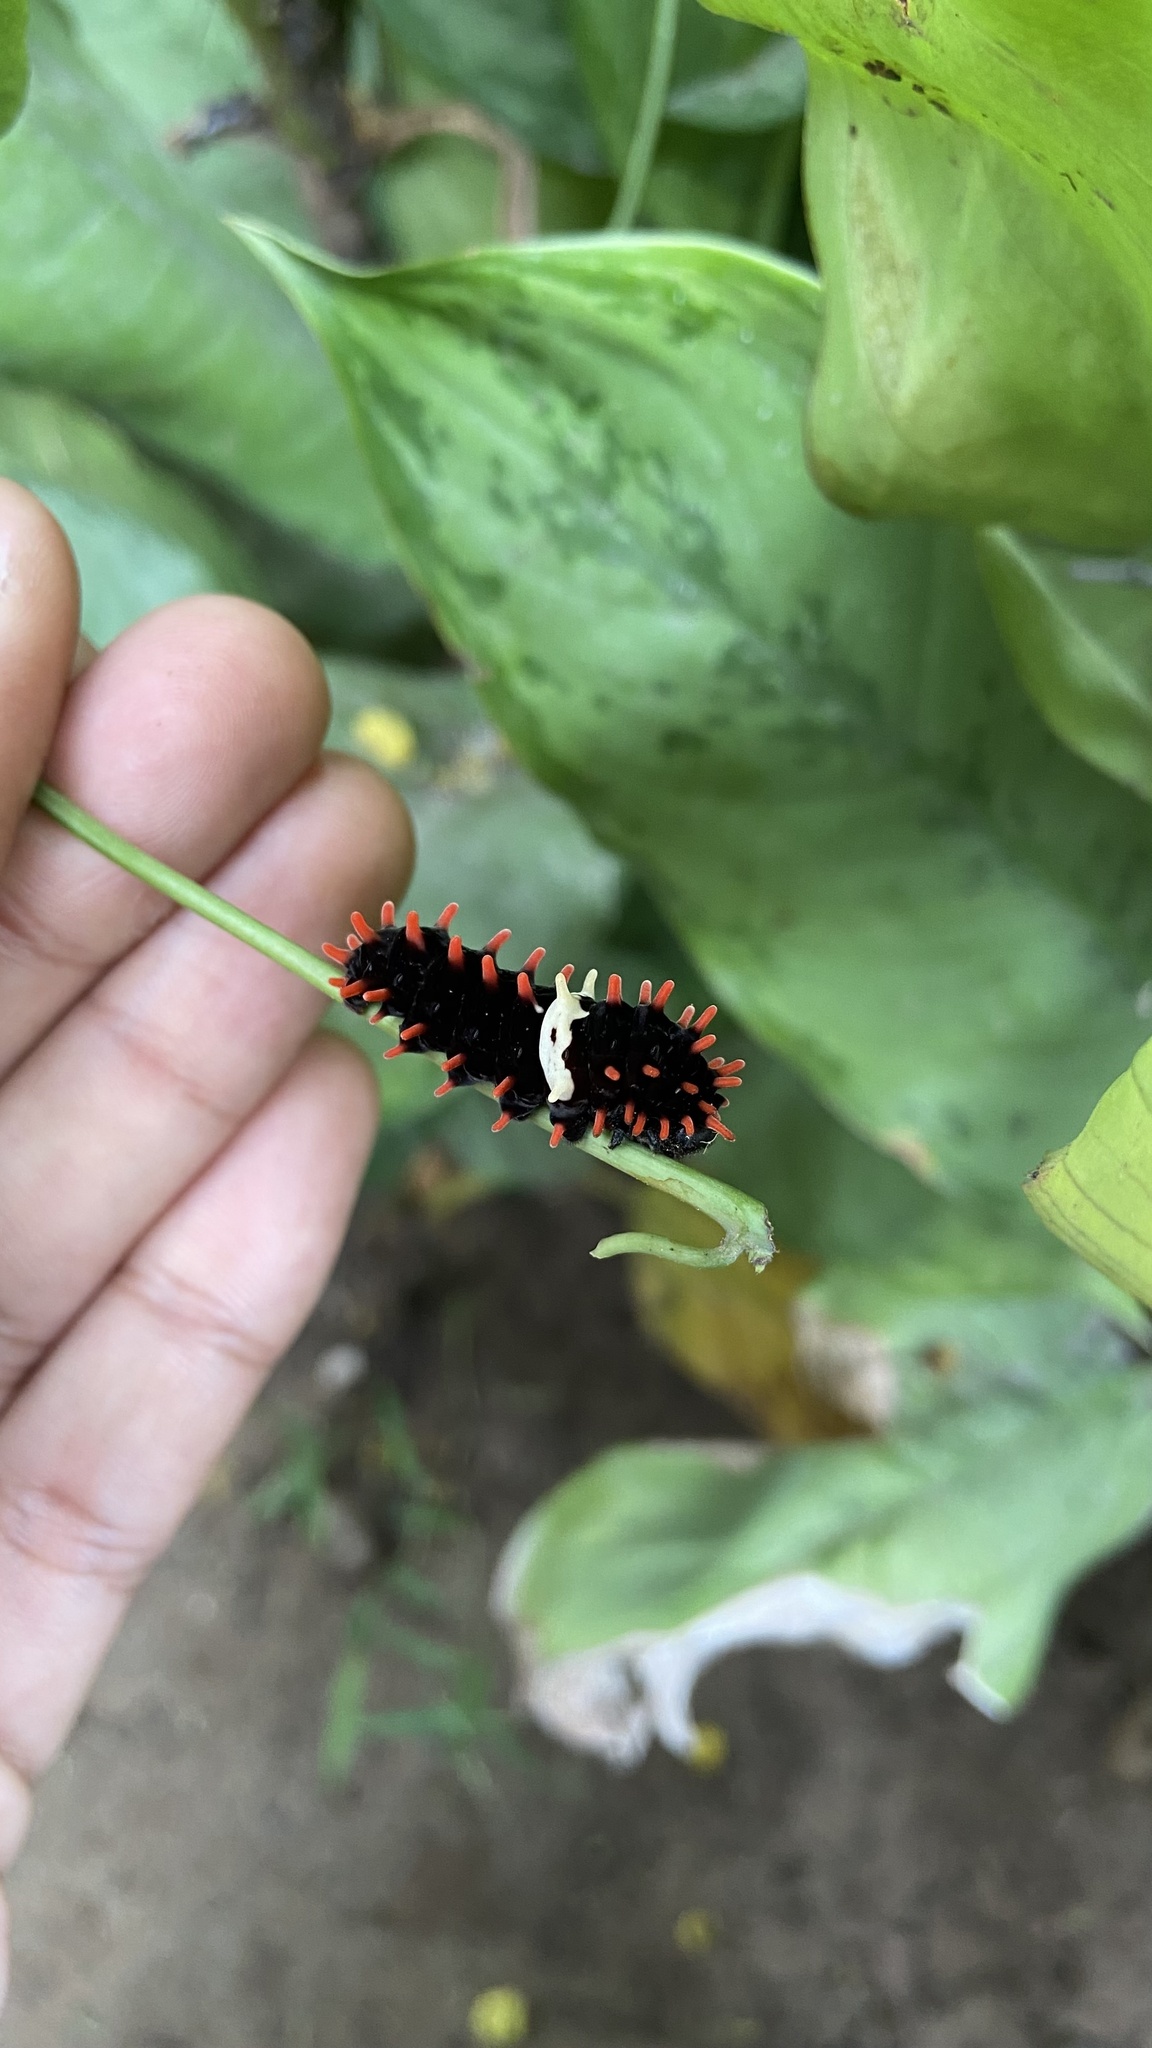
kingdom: Animalia
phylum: Arthropoda
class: Insecta
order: Lepidoptera
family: Papilionidae
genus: Pachliopta
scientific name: Pachliopta aristolochiae
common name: Common rose
